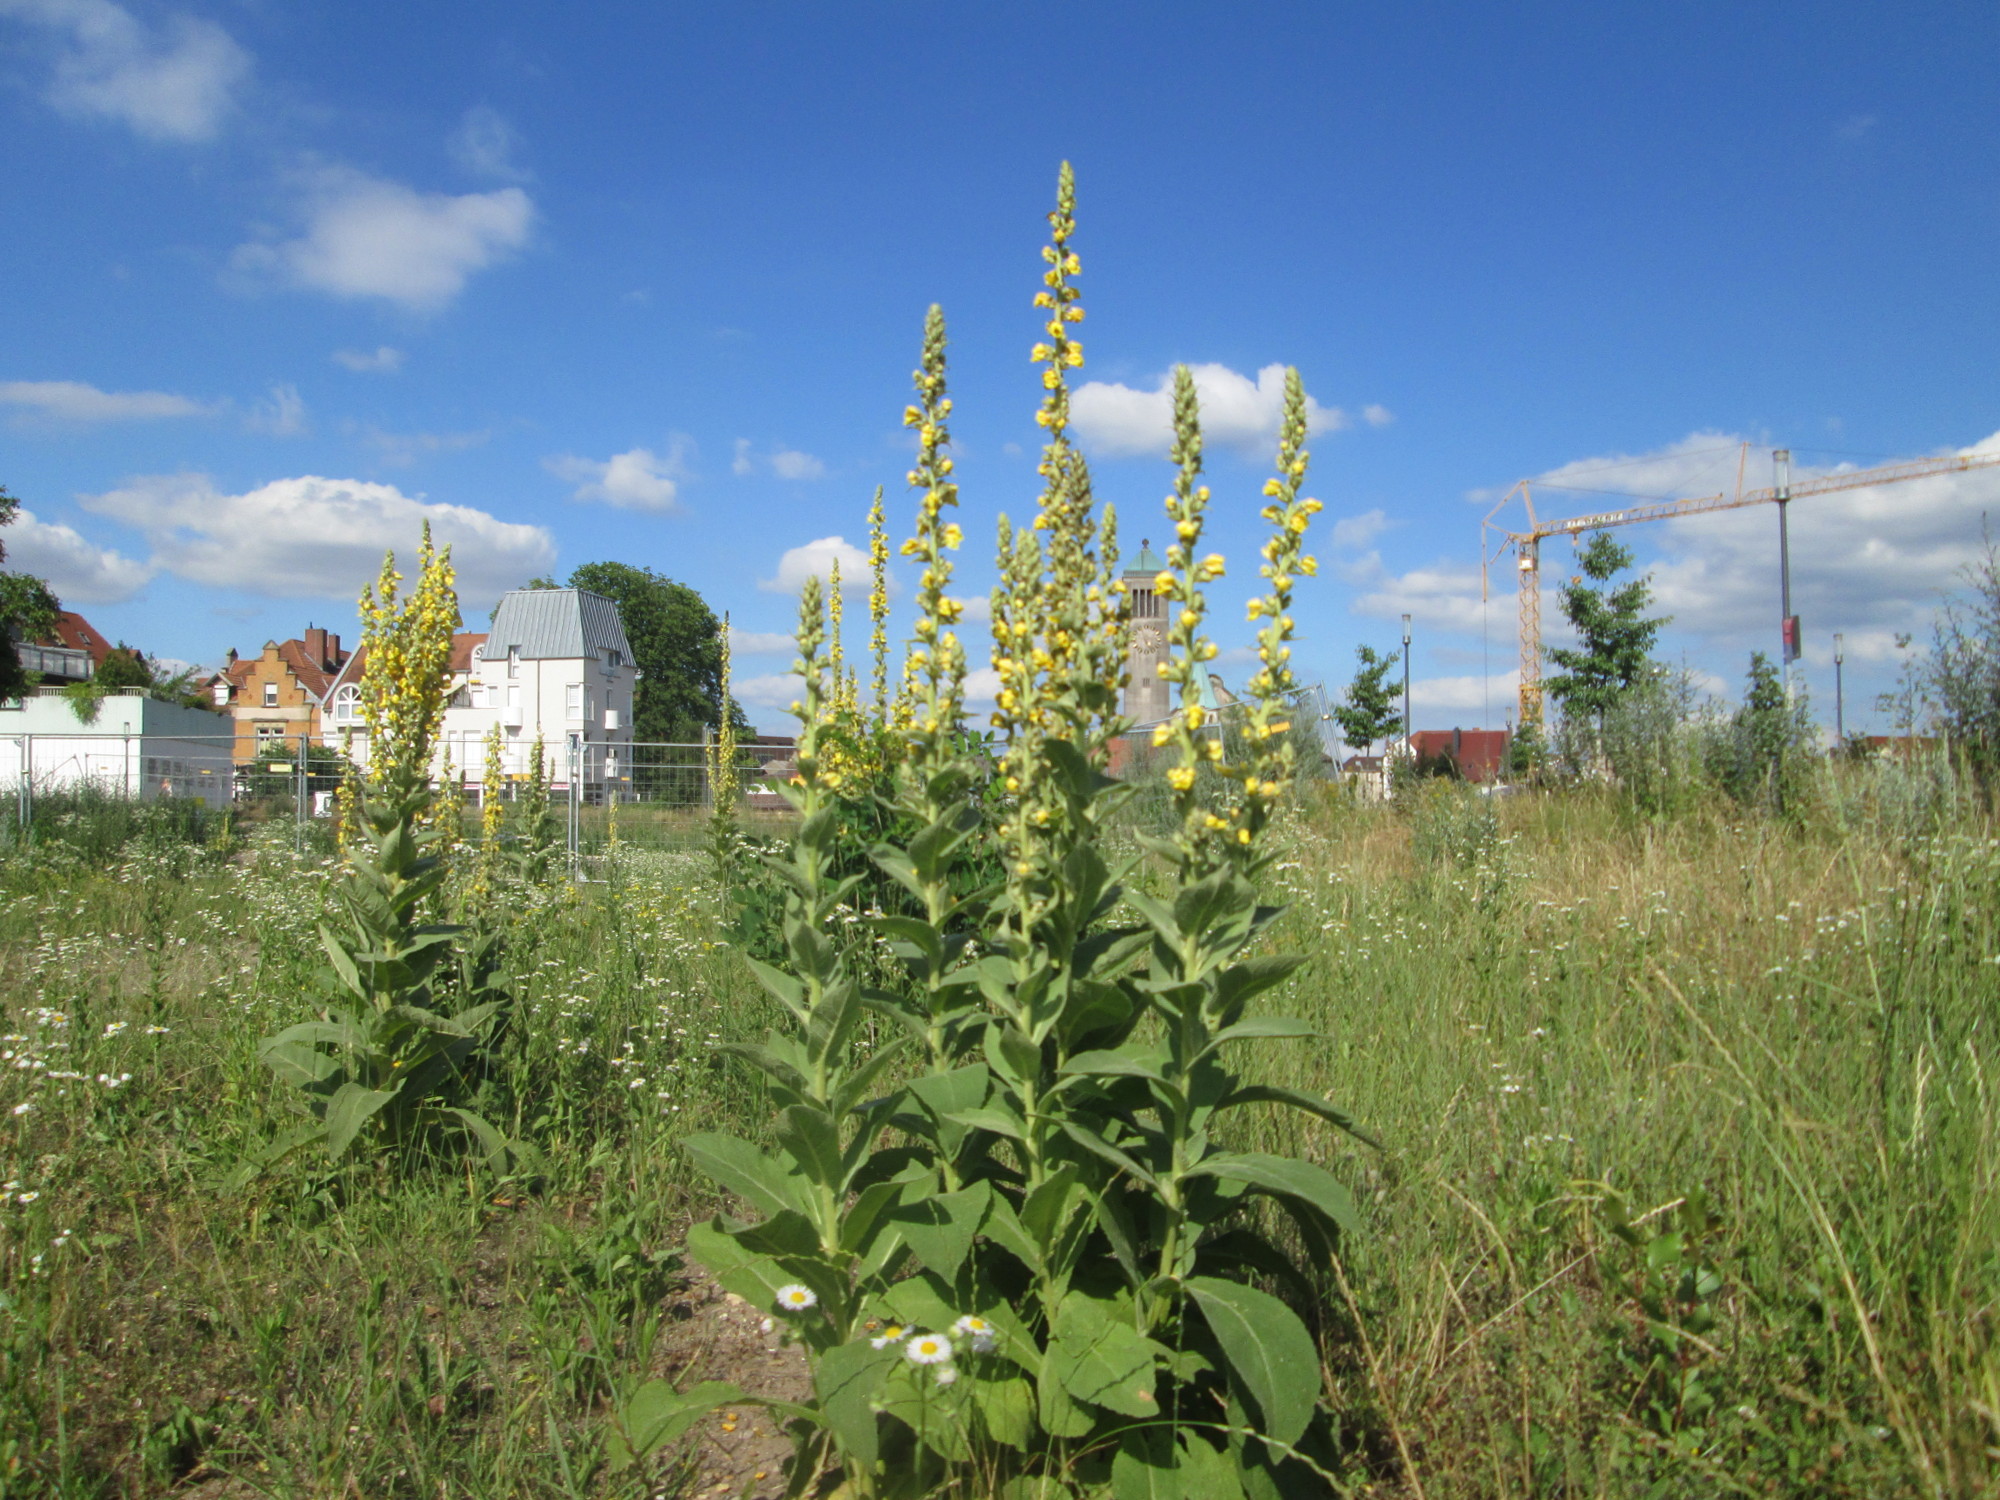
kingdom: Plantae
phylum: Tracheophyta
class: Magnoliopsida
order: Lamiales
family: Scrophulariaceae
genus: Verbascum
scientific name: Verbascum thapsus
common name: Common mullein
